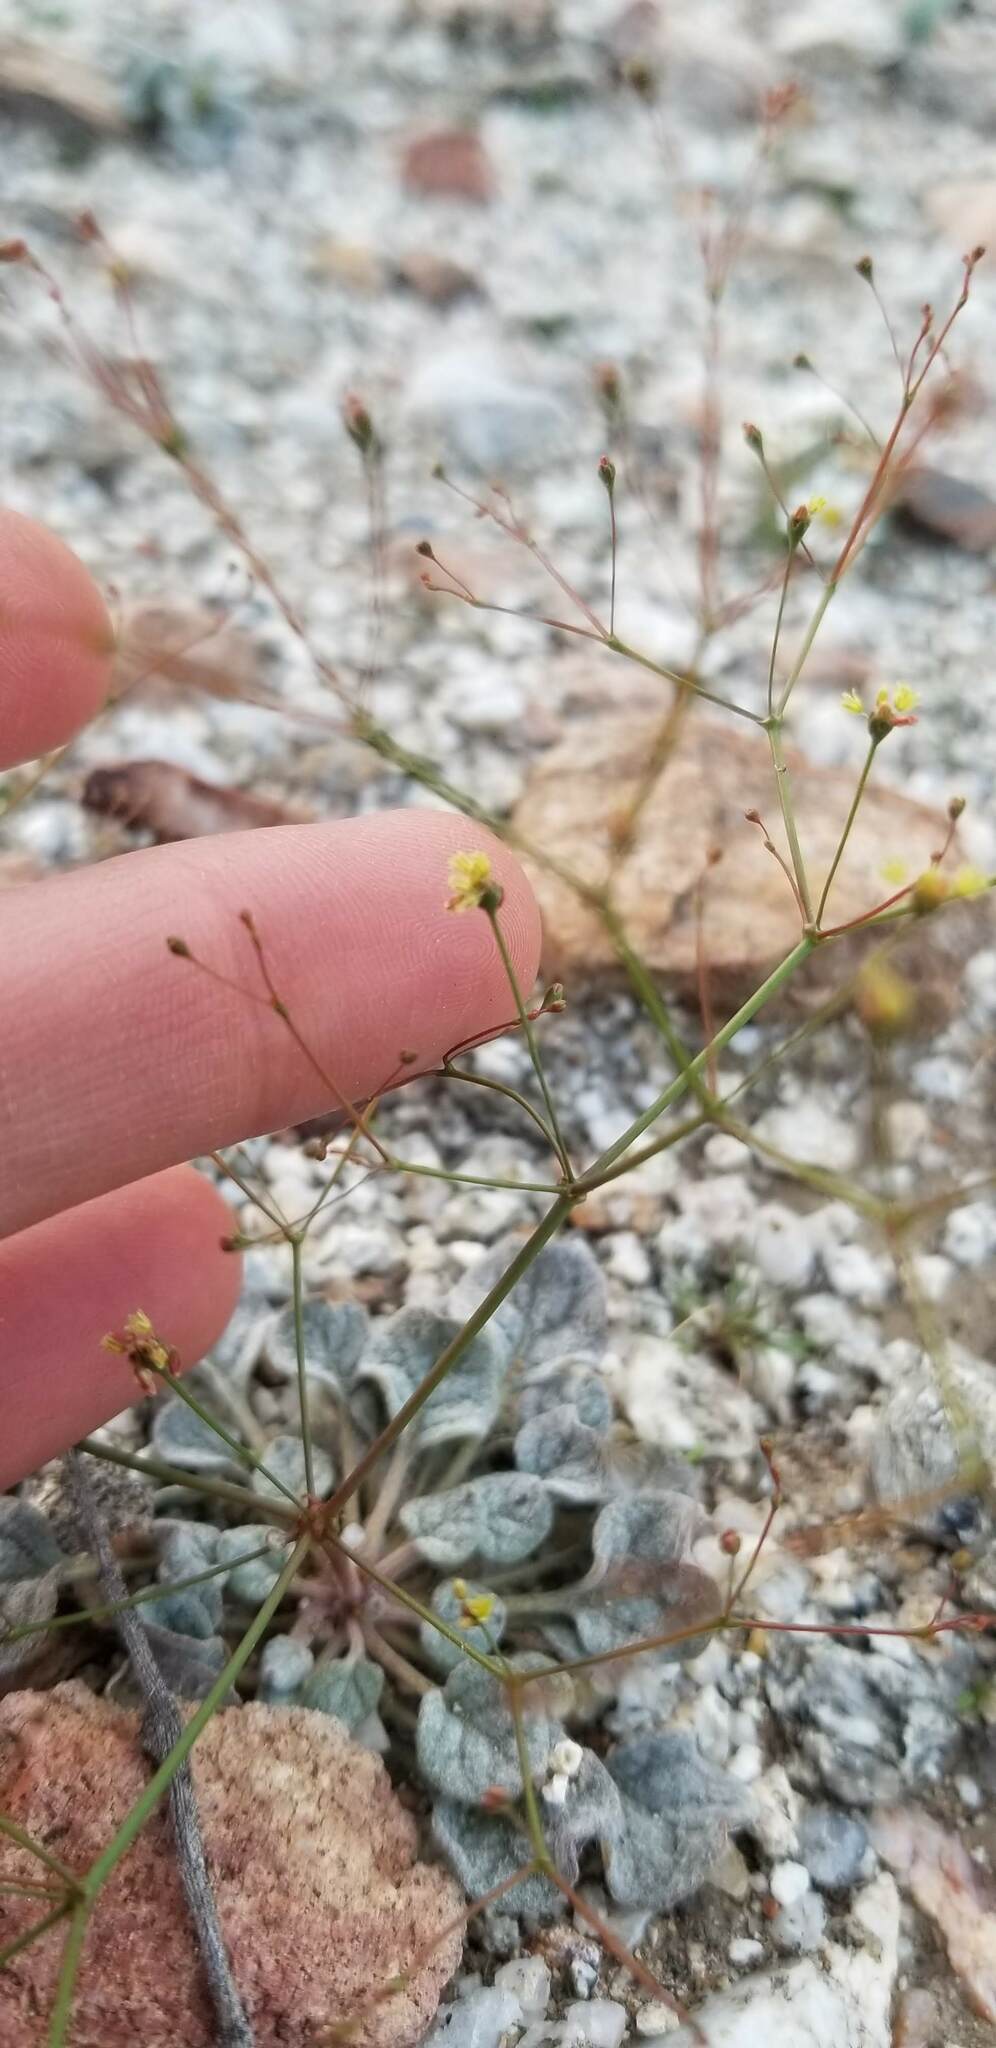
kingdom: Plantae
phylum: Tracheophyta
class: Magnoliopsida
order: Caryophyllales
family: Polygonaceae
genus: Eriogonum
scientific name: Eriogonum thomasii
